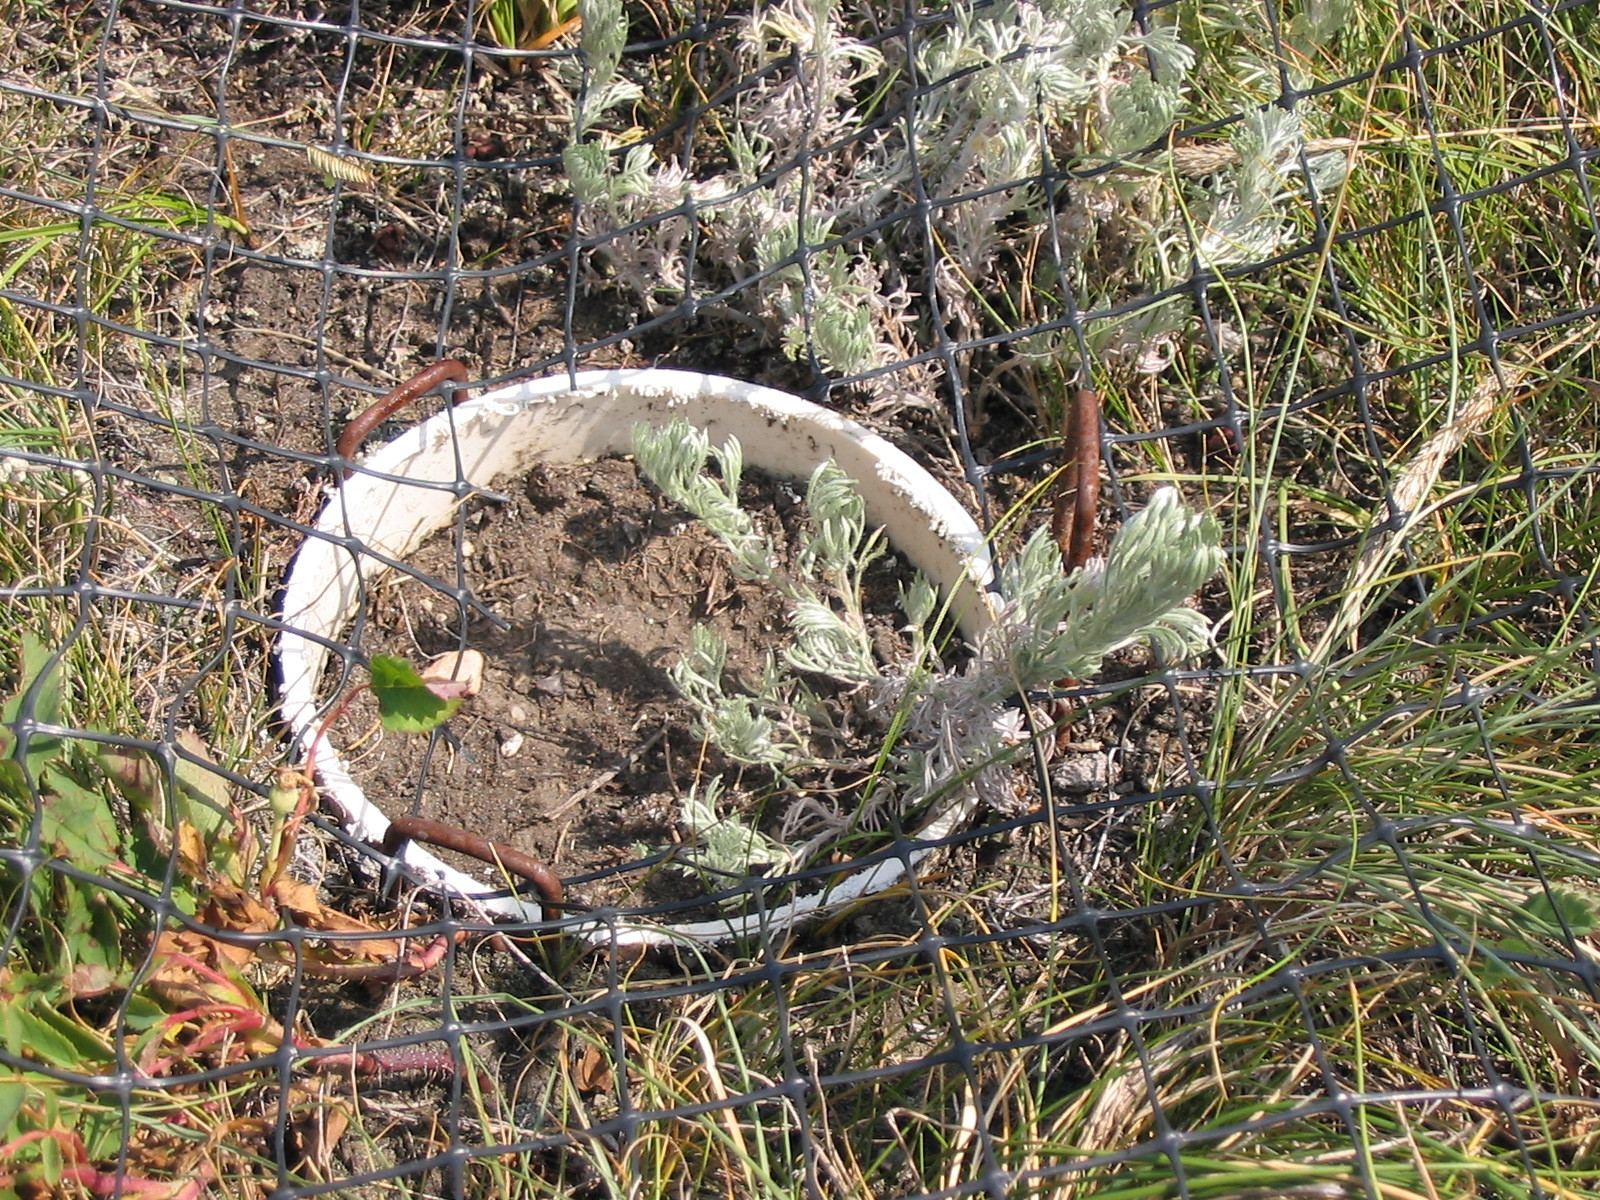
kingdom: Plantae
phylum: Tracheophyta
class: Magnoliopsida
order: Asterales
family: Asteraceae
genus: Artemisia
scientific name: Artemisia frigida
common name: Prairie sagewort
